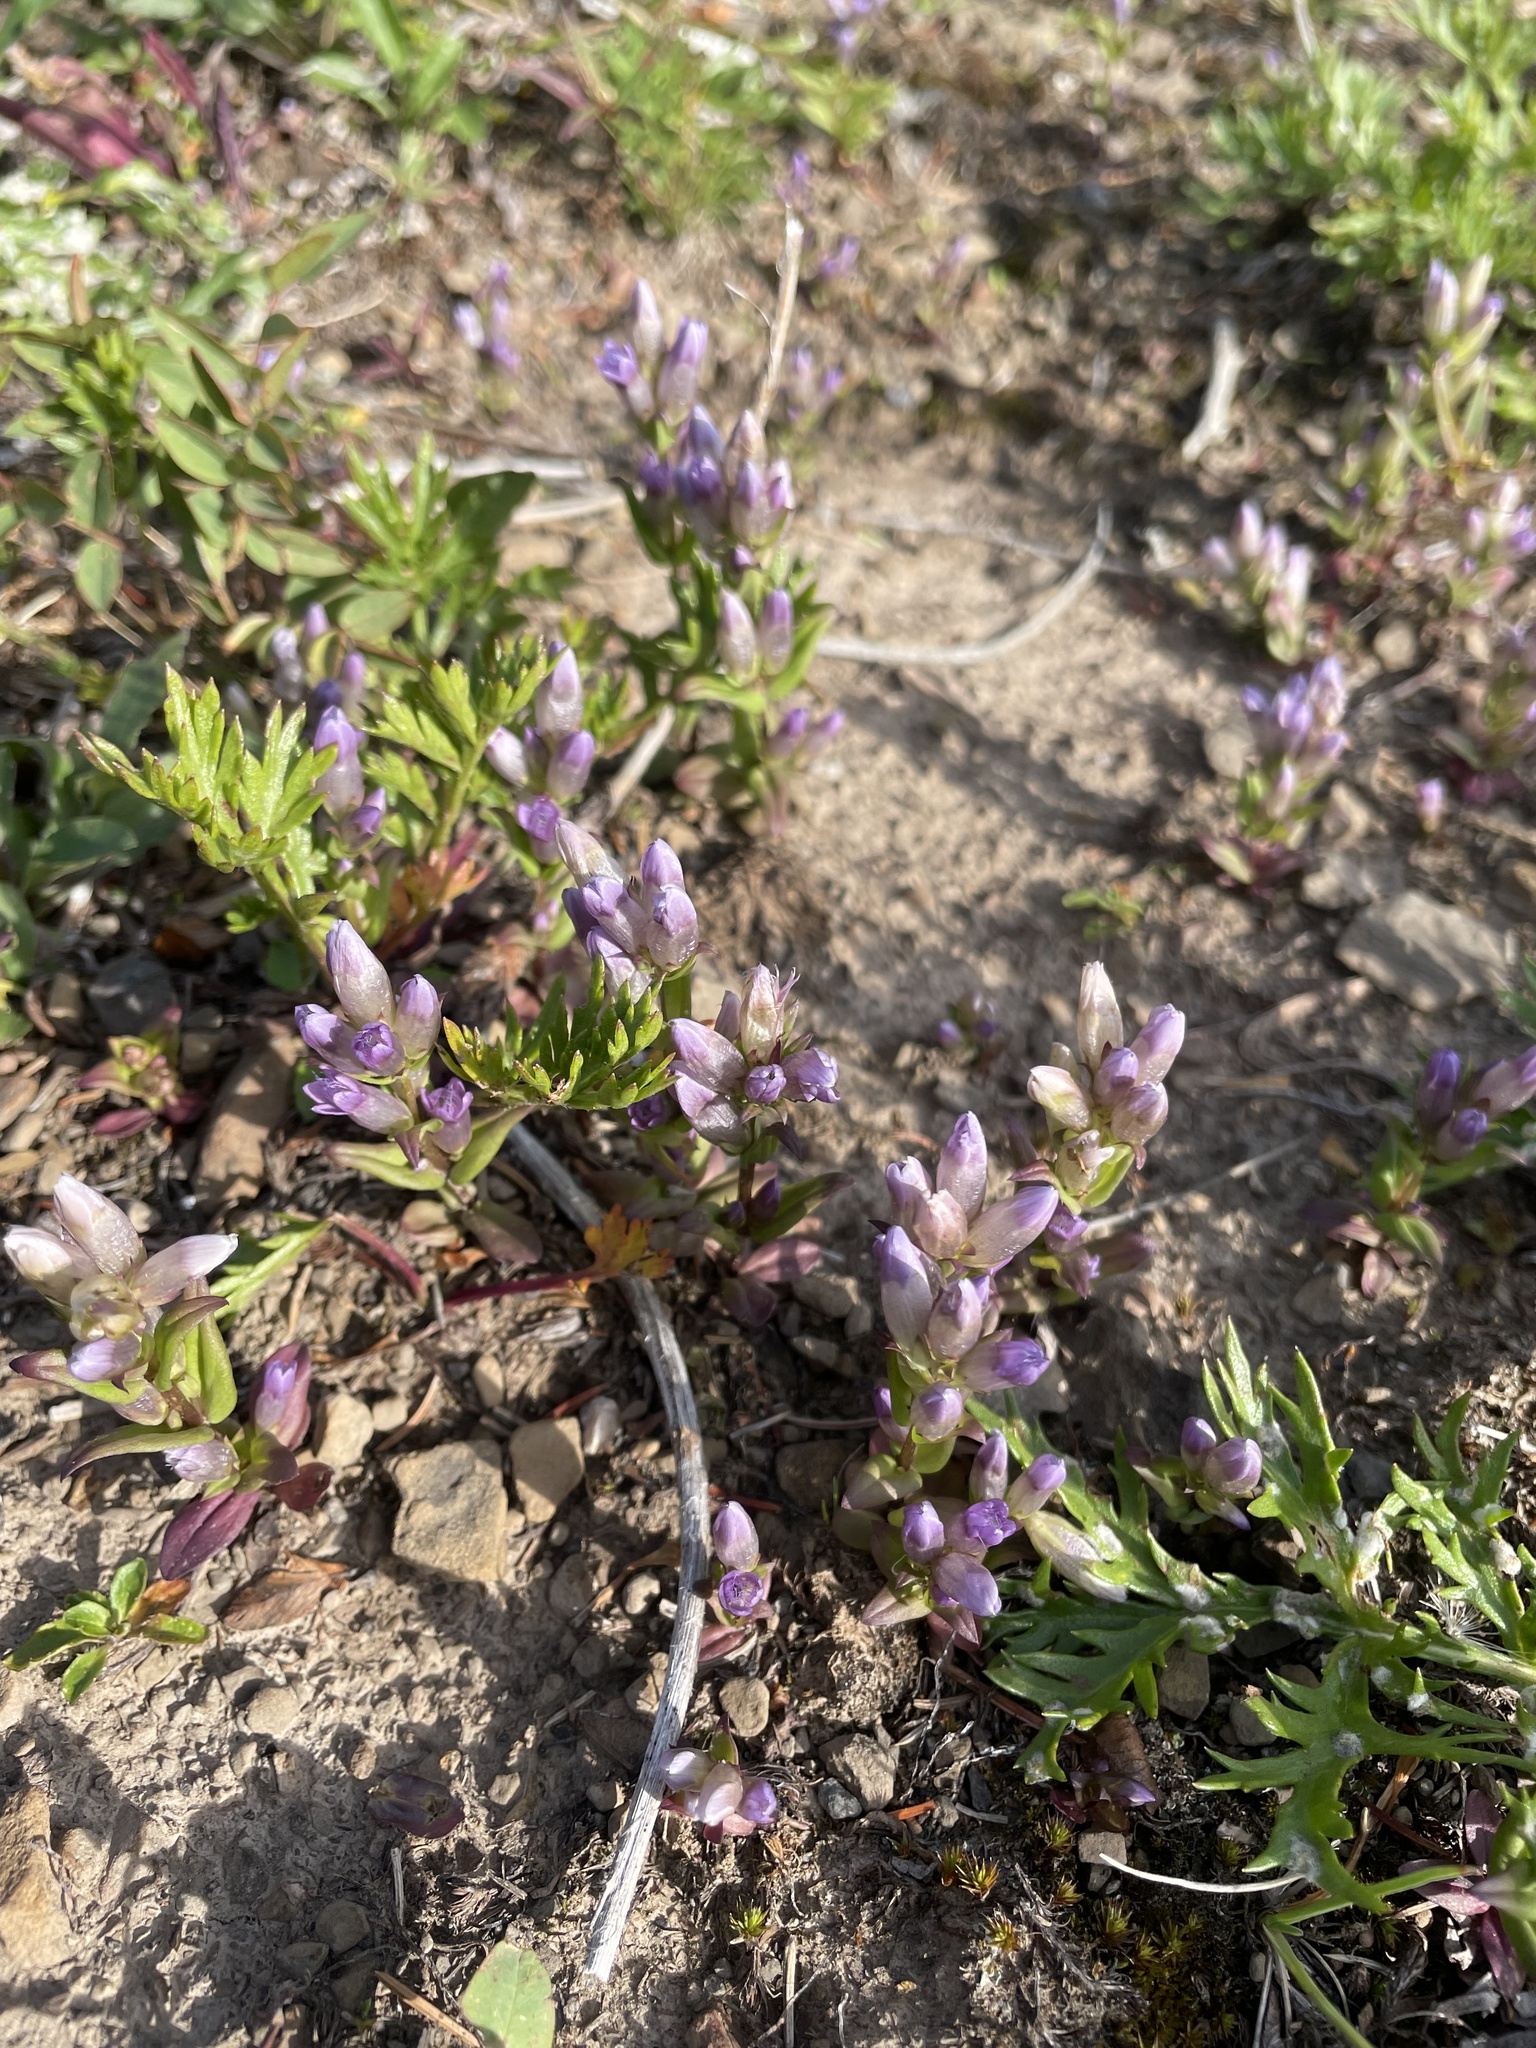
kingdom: Plantae
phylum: Tracheophyta
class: Magnoliopsida
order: Gentianales
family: Gentianaceae
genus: Gentianella
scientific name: Gentianella propinqua
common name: Four-parted dwarf-gentian
